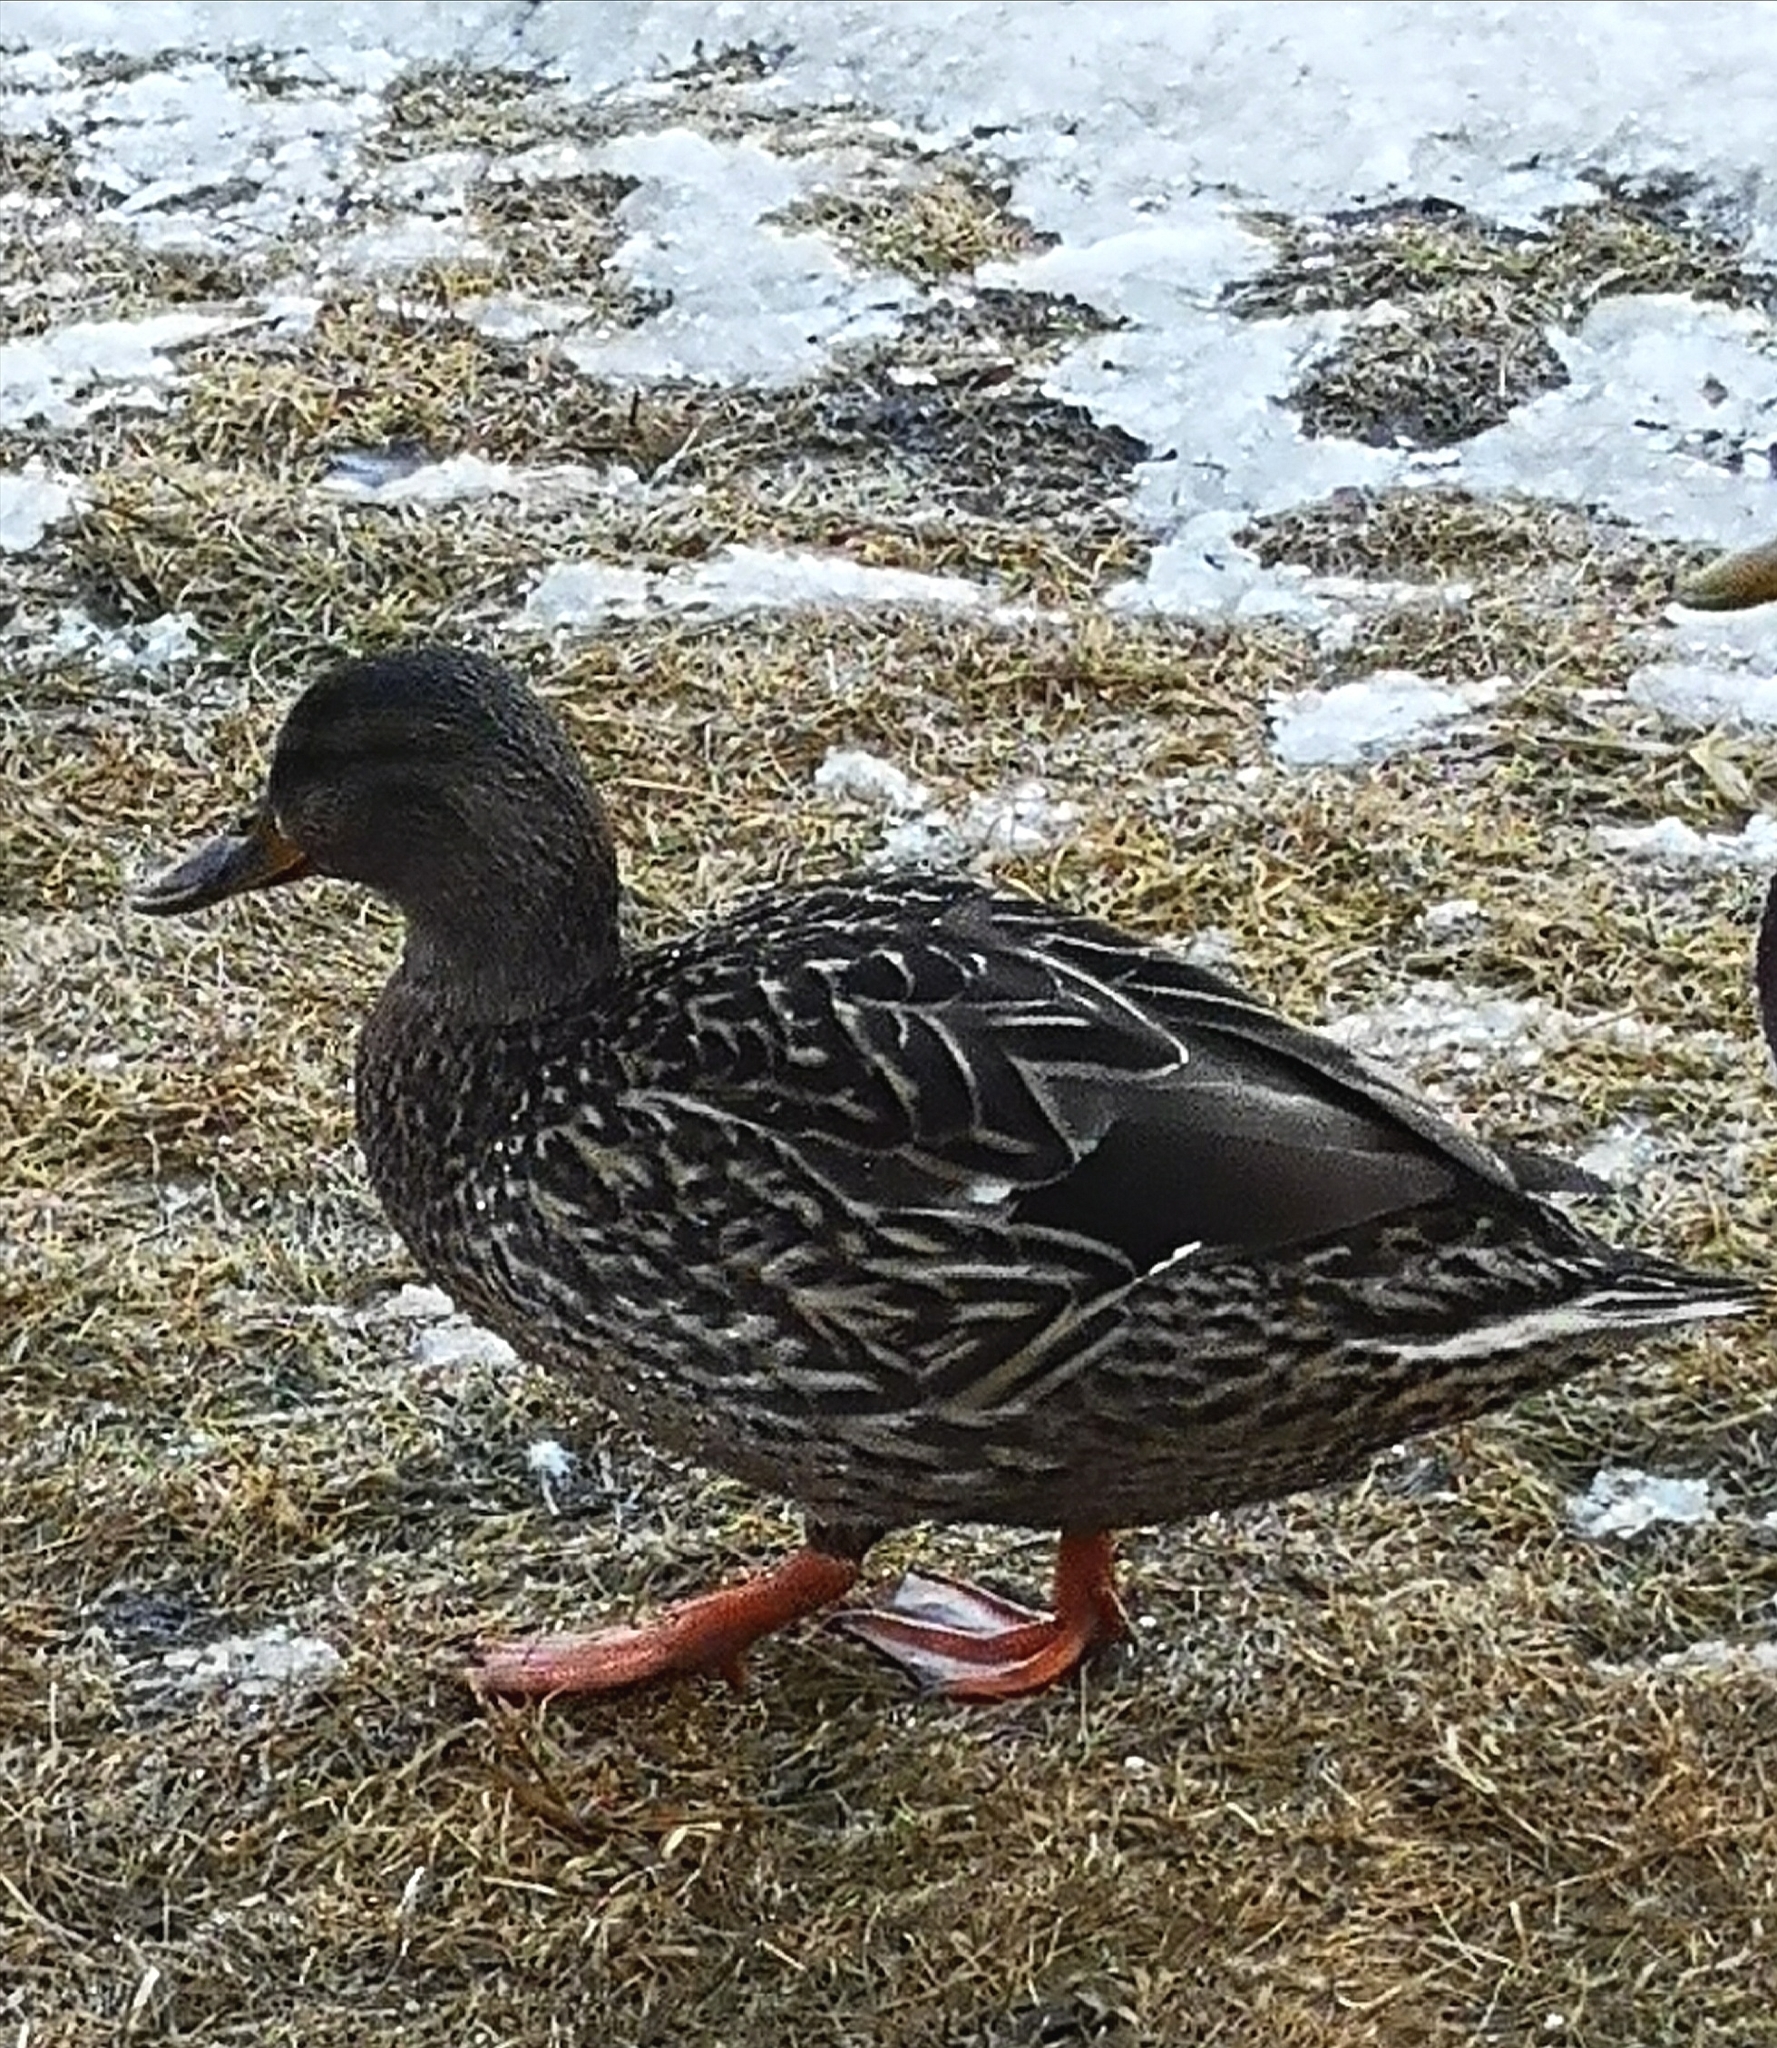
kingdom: Animalia
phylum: Chordata
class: Aves
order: Anseriformes
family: Anatidae
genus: Anas
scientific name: Anas platyrhynchos
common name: Mallard
